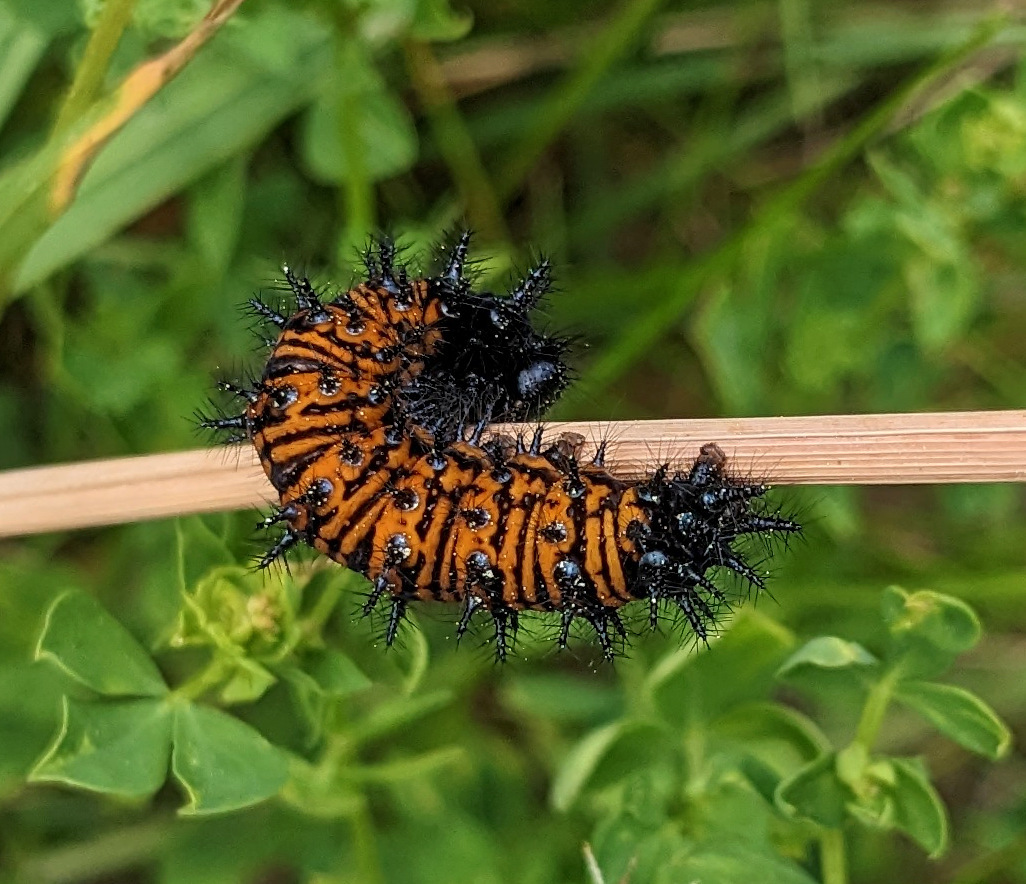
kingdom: Animalia
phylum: Arthropoda
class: Insecta
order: Lepidoptera
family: Nymphalidae
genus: Euphydryas
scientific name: Euphydryas phaeton
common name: Baltimore checkerspot
